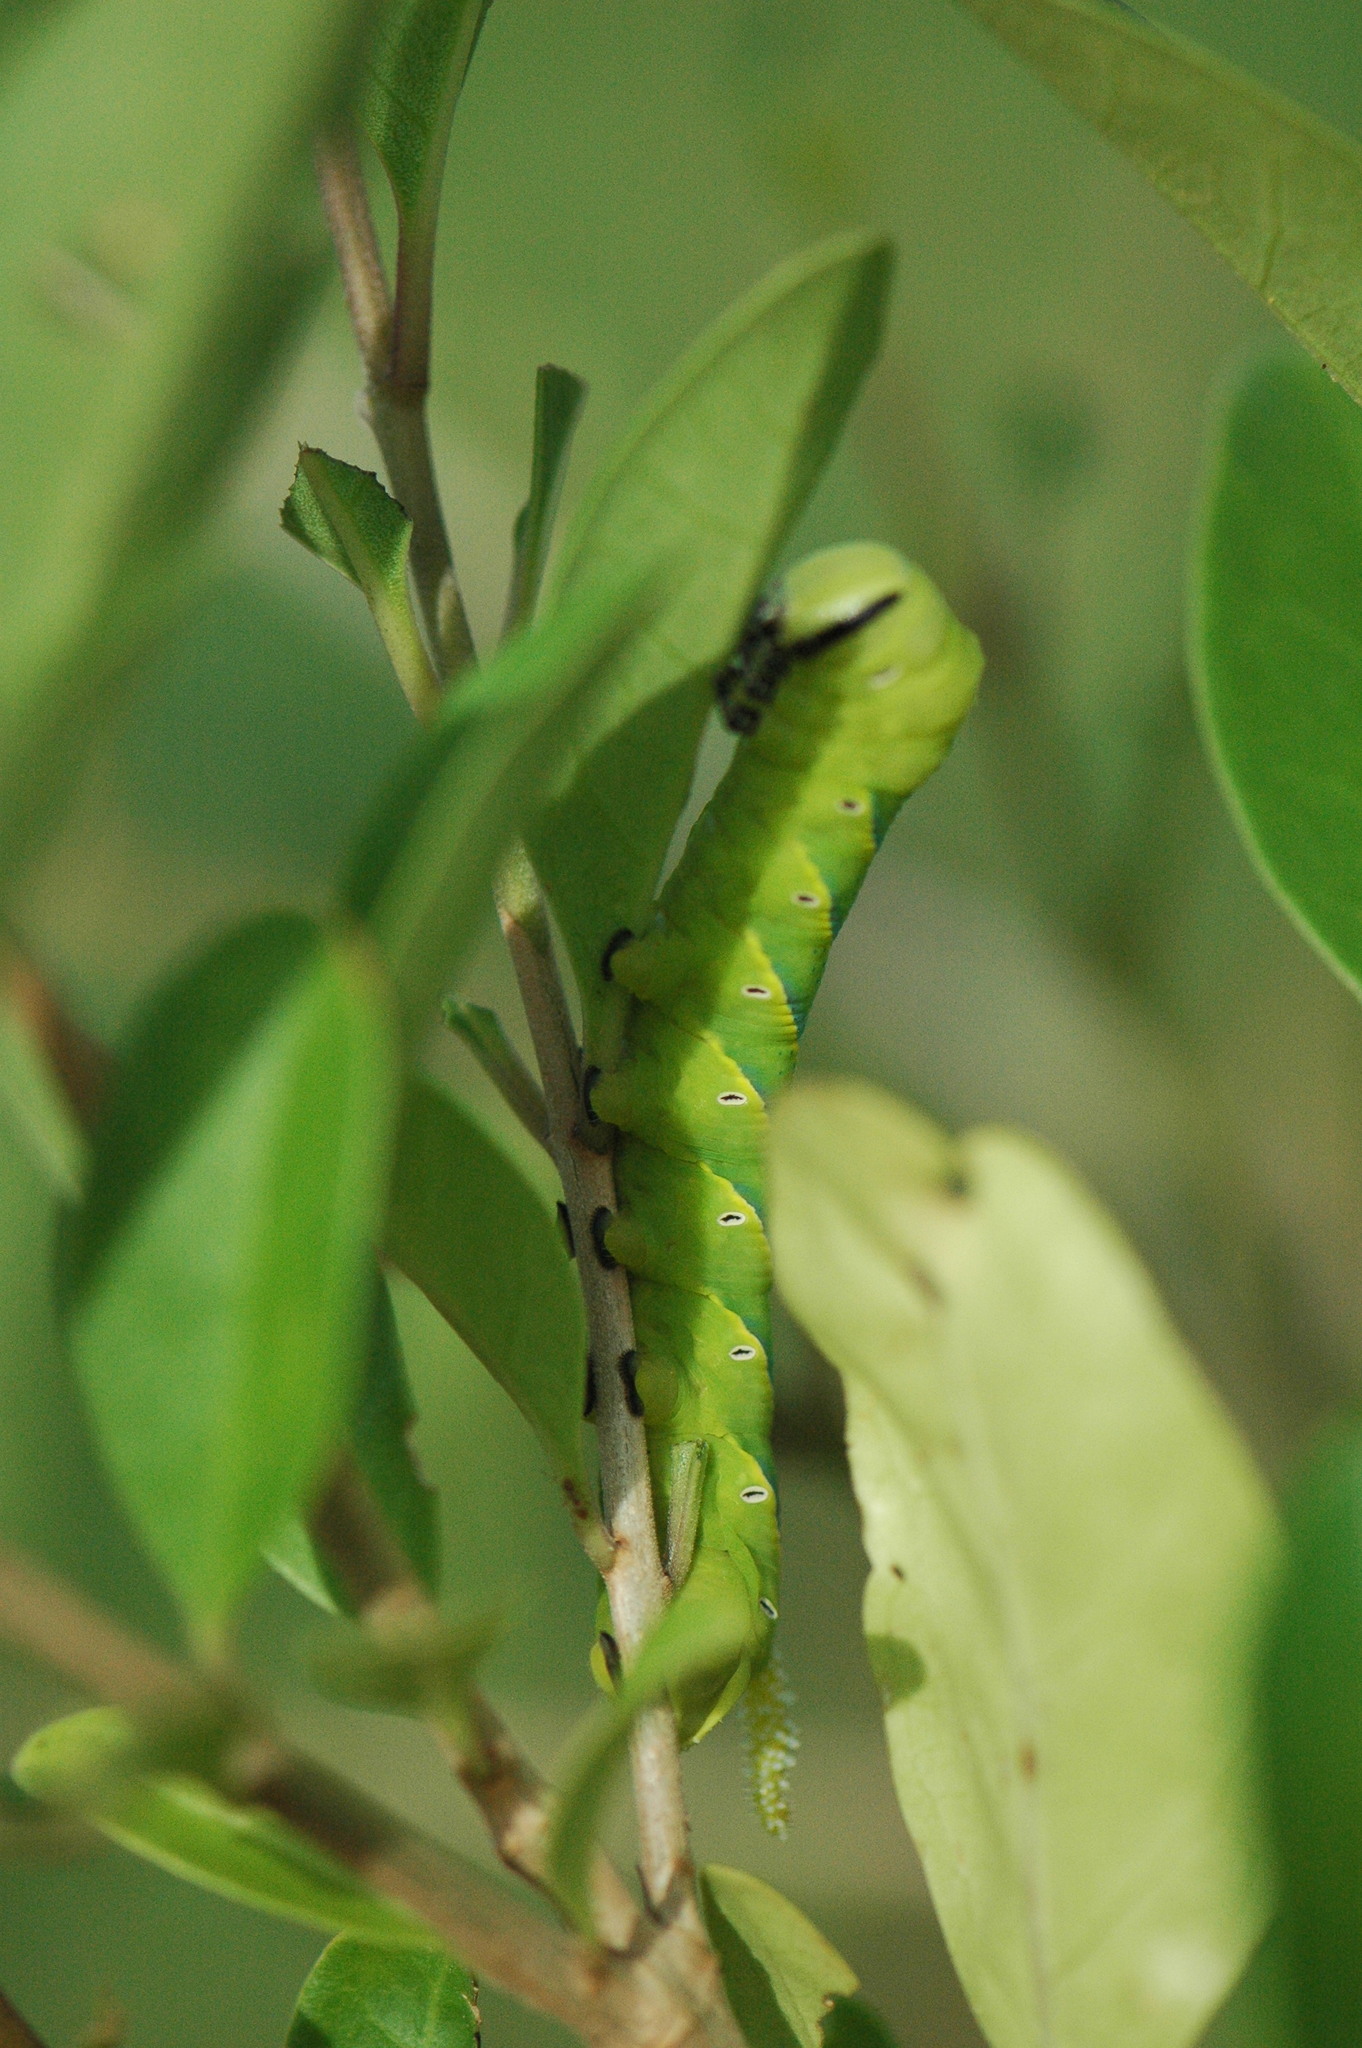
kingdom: Animalia
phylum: Arthropoda
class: Insecta
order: Lepidoptera
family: Sphingidae
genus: Acherontia
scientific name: Acherontia atropos
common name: Death's-head hawk moth
